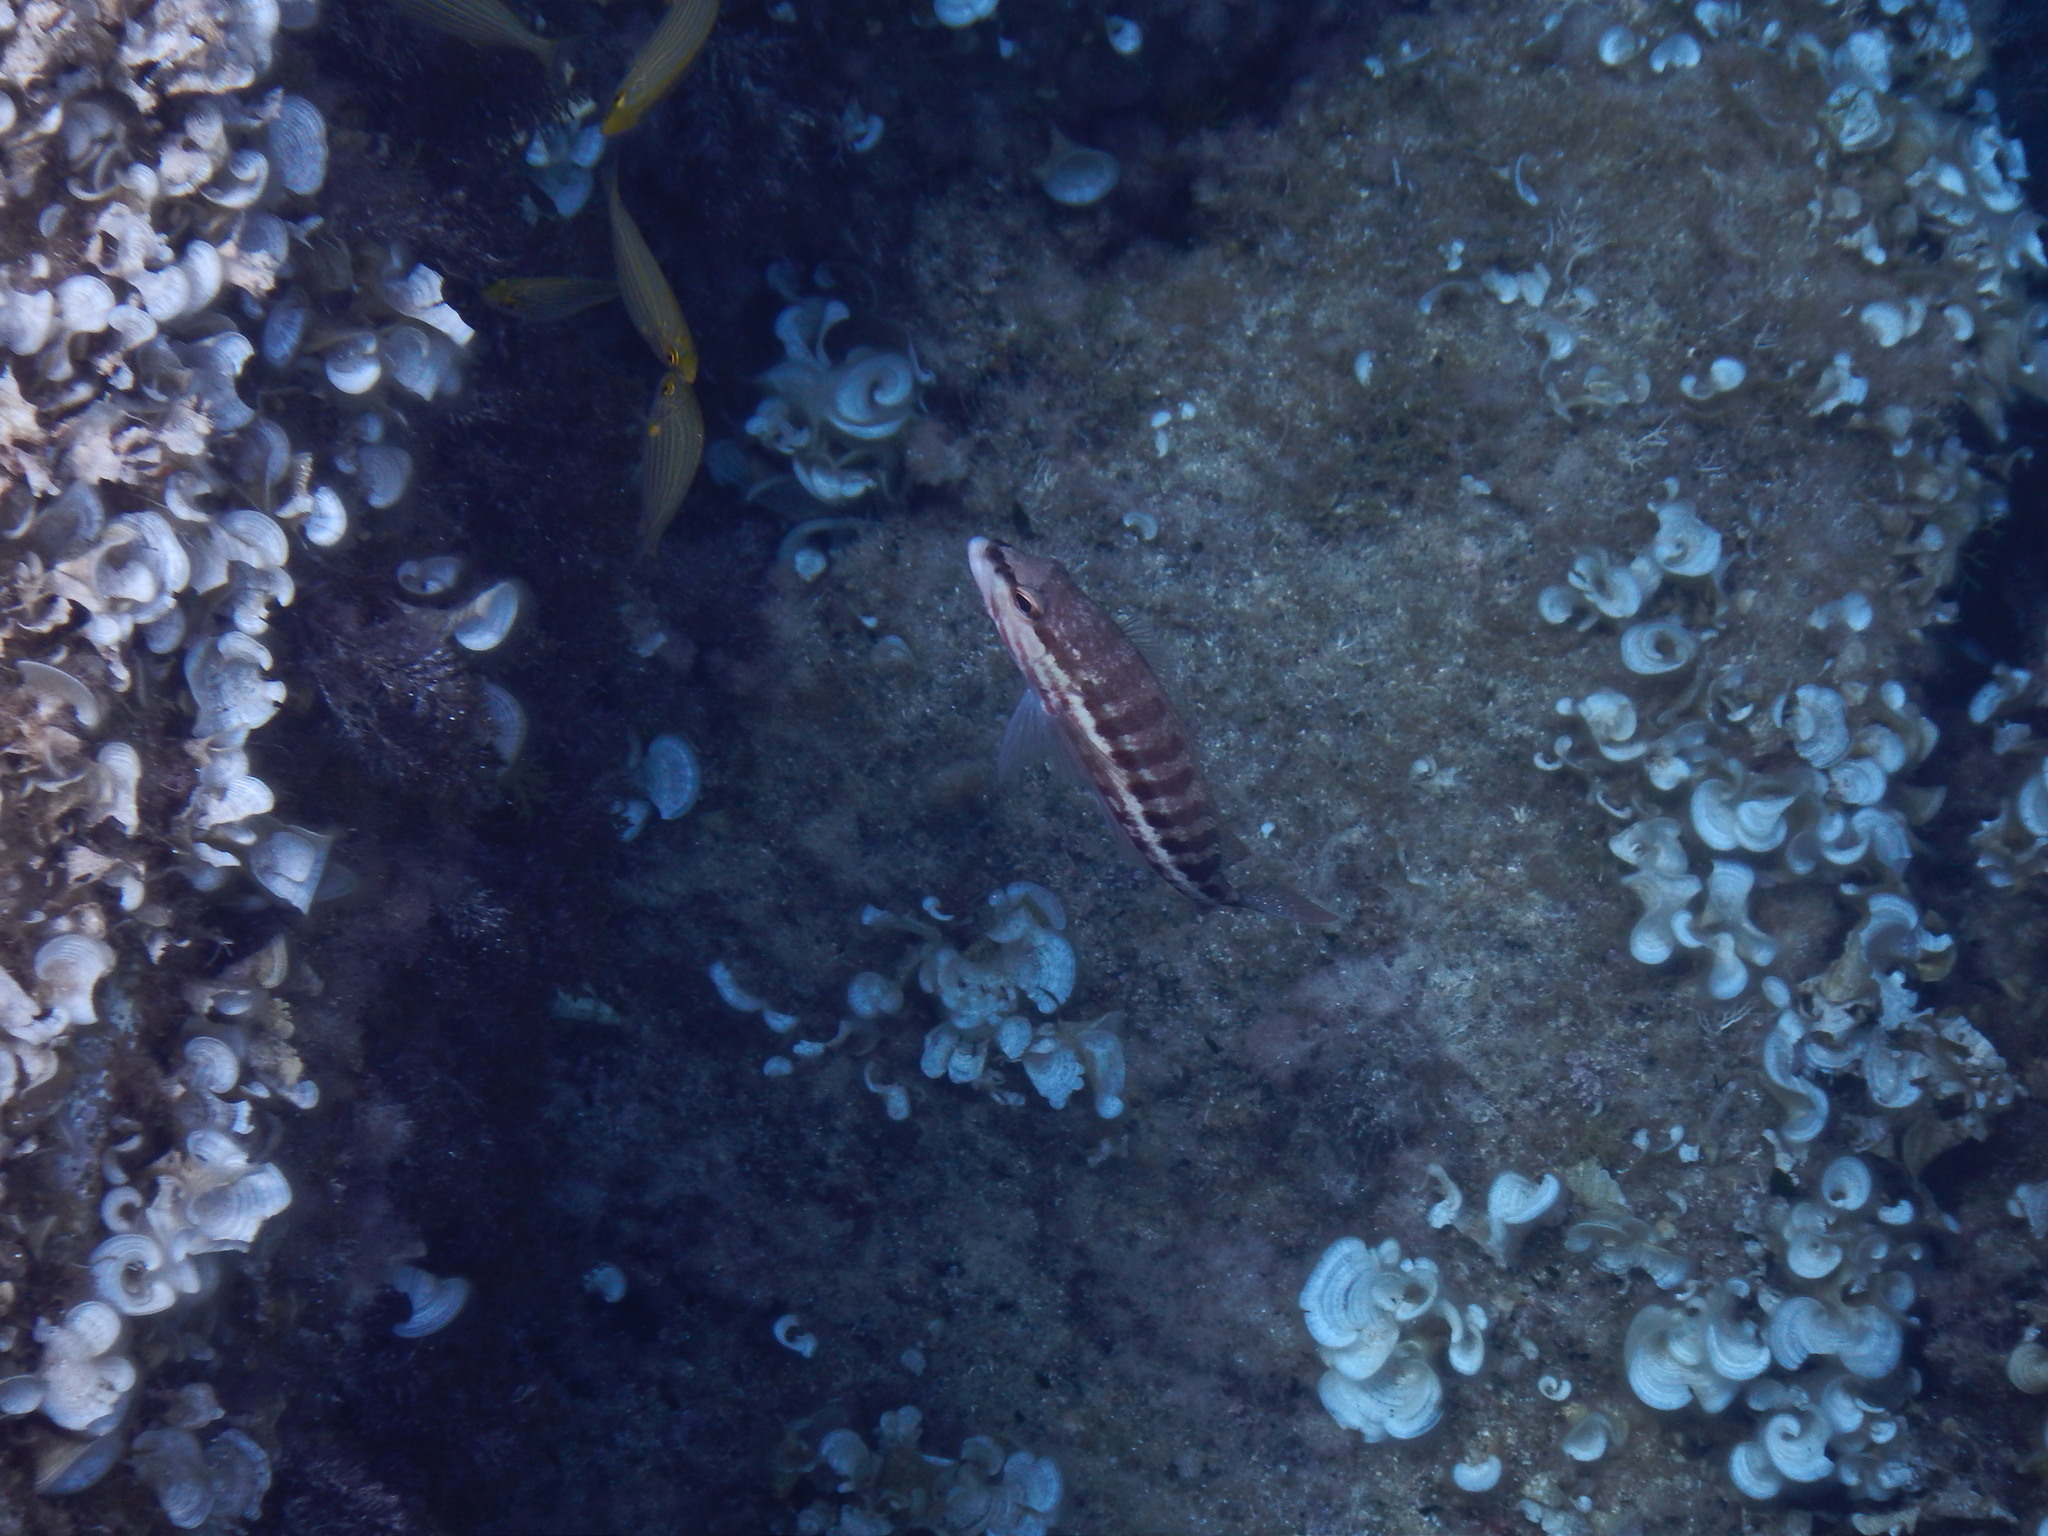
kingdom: Animalia
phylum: Chordata
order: Perciformes
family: Serranidae
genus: Serranus
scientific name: Serranus cabrilla
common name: Comber
